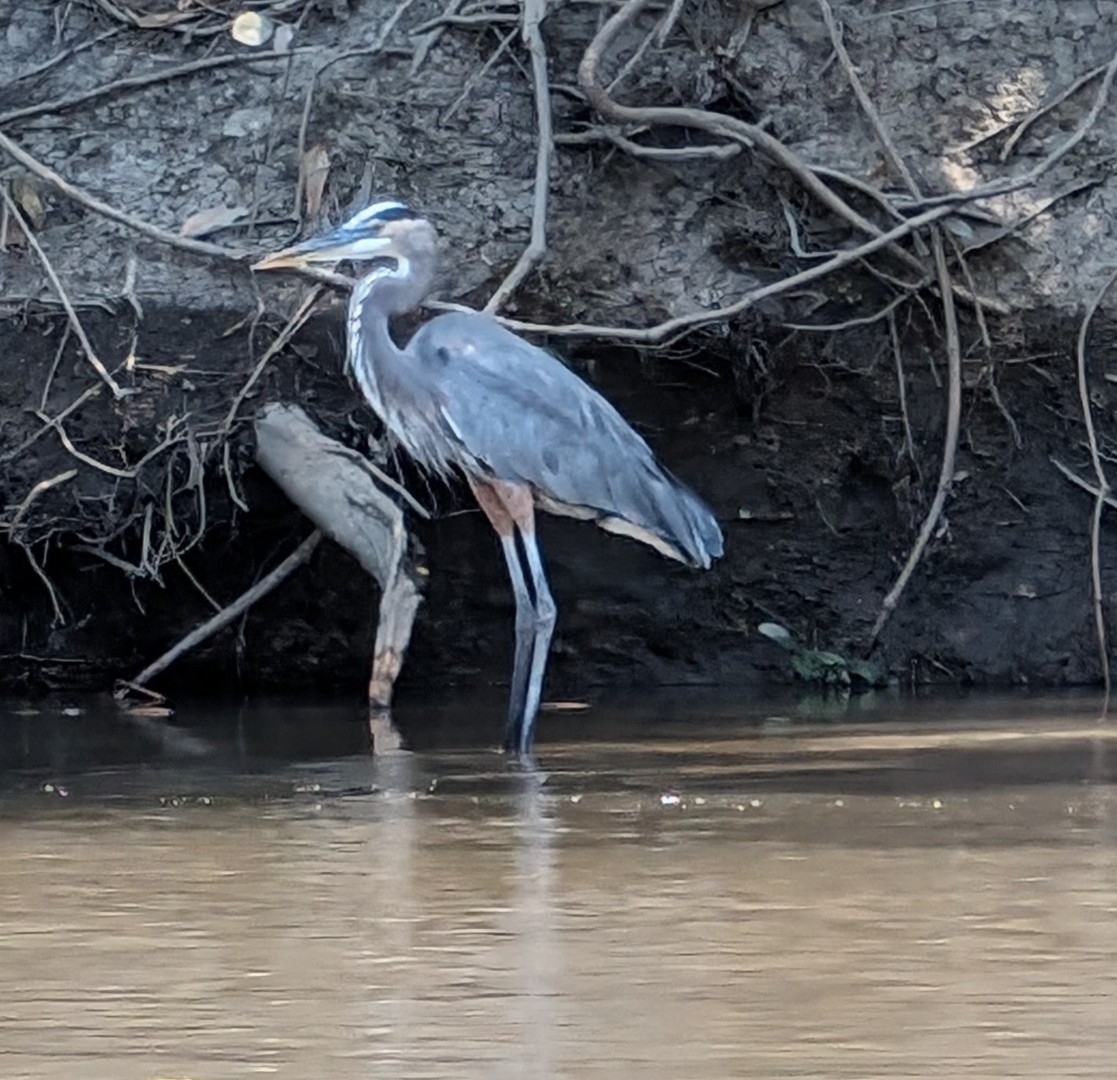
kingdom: Animalia
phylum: Chordata
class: Aves
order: Pelecaniformes
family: Ardeidae
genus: Ardea
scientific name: Ardea herodias
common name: Great blue heron
